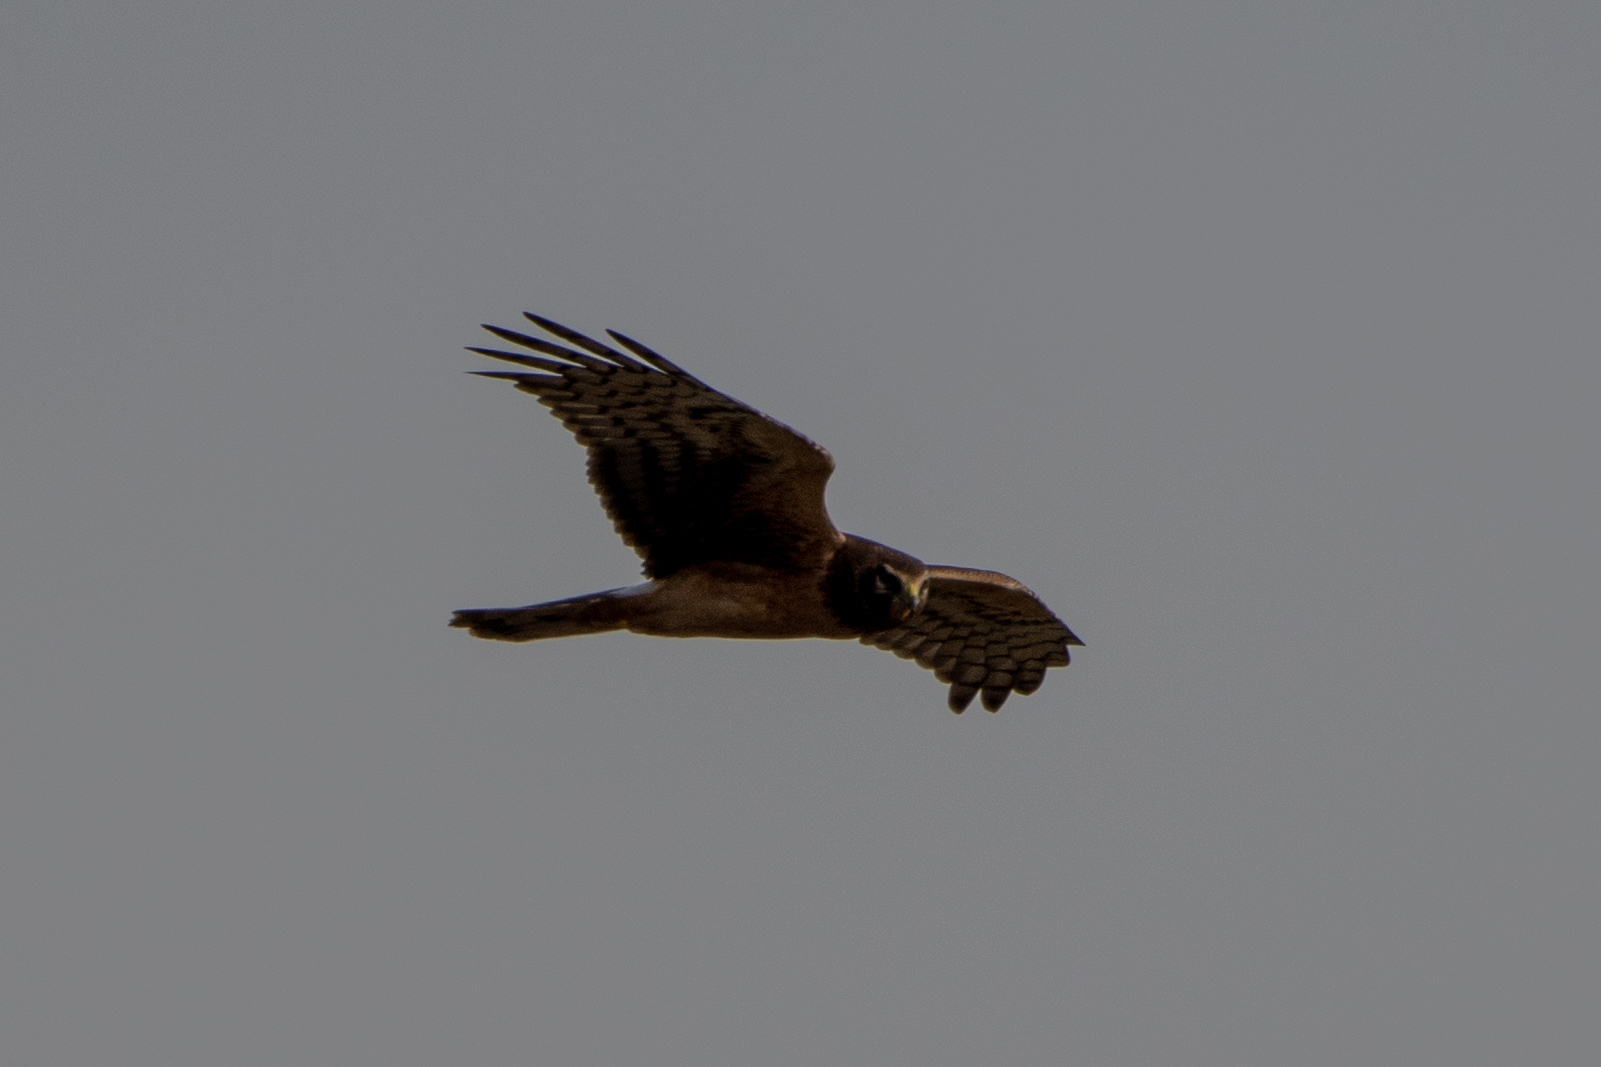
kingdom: Animalia
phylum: Chordata
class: Aves
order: Accipitriformes
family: Accipitridae
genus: Circus
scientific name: Circus cyaneus
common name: Hen harrier
